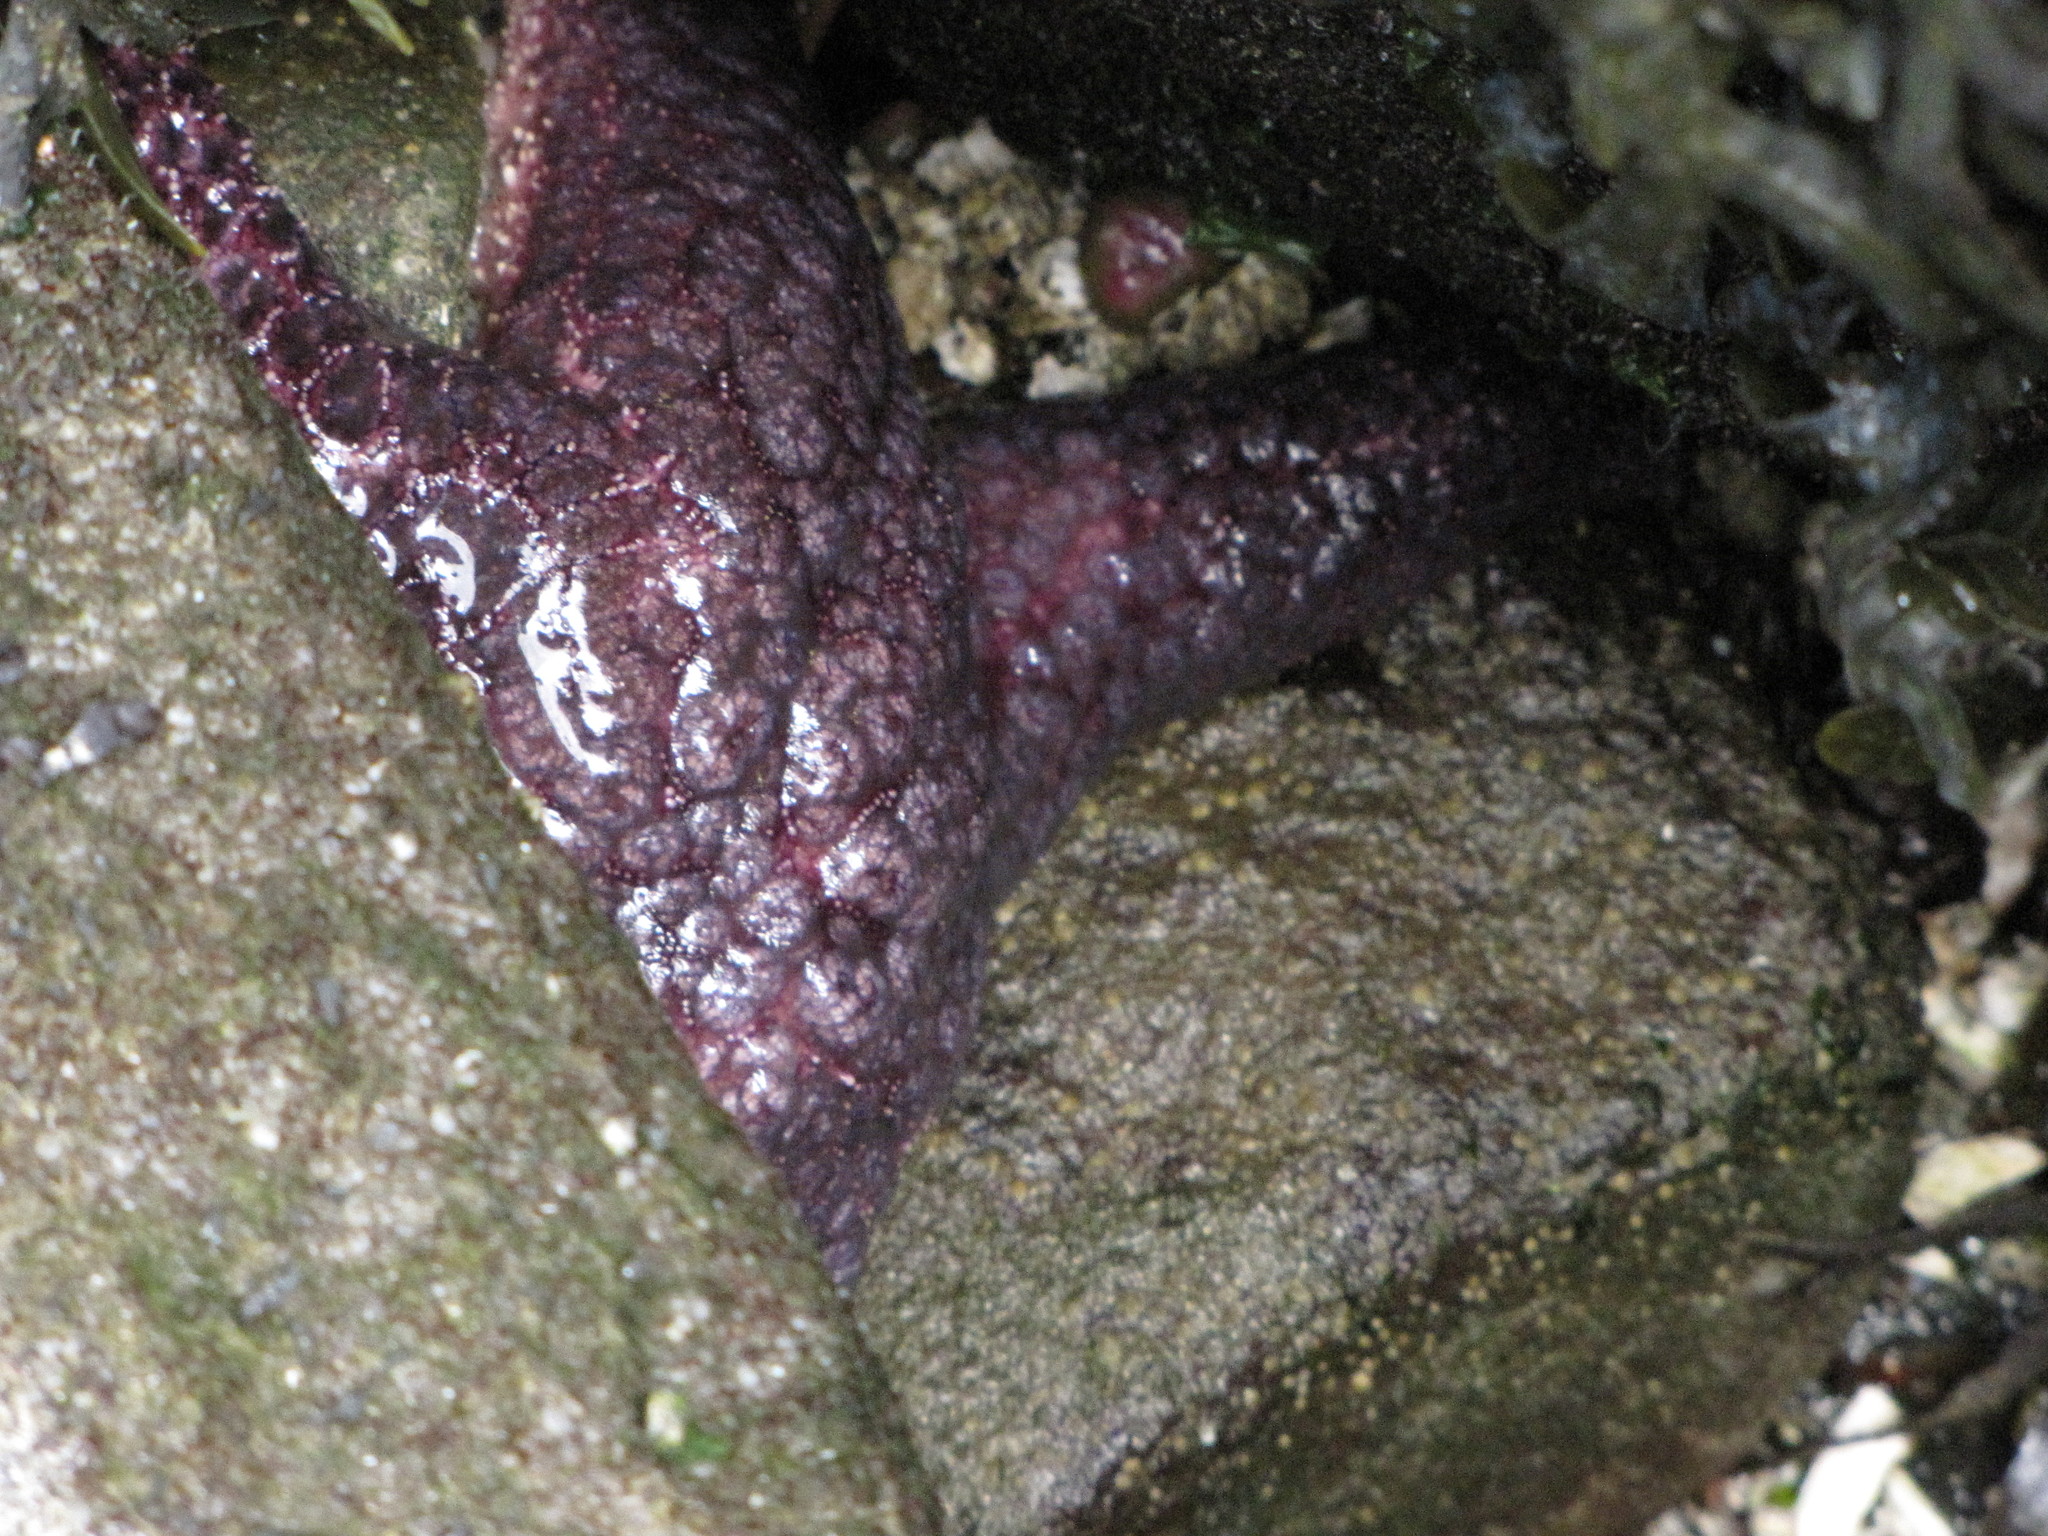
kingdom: Animalia
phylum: Echinodermata
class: Asteroidea
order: Forcipulatida
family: Asteriidae
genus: Pisaster
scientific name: Pisaster ochraceus
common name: Ochre stars
